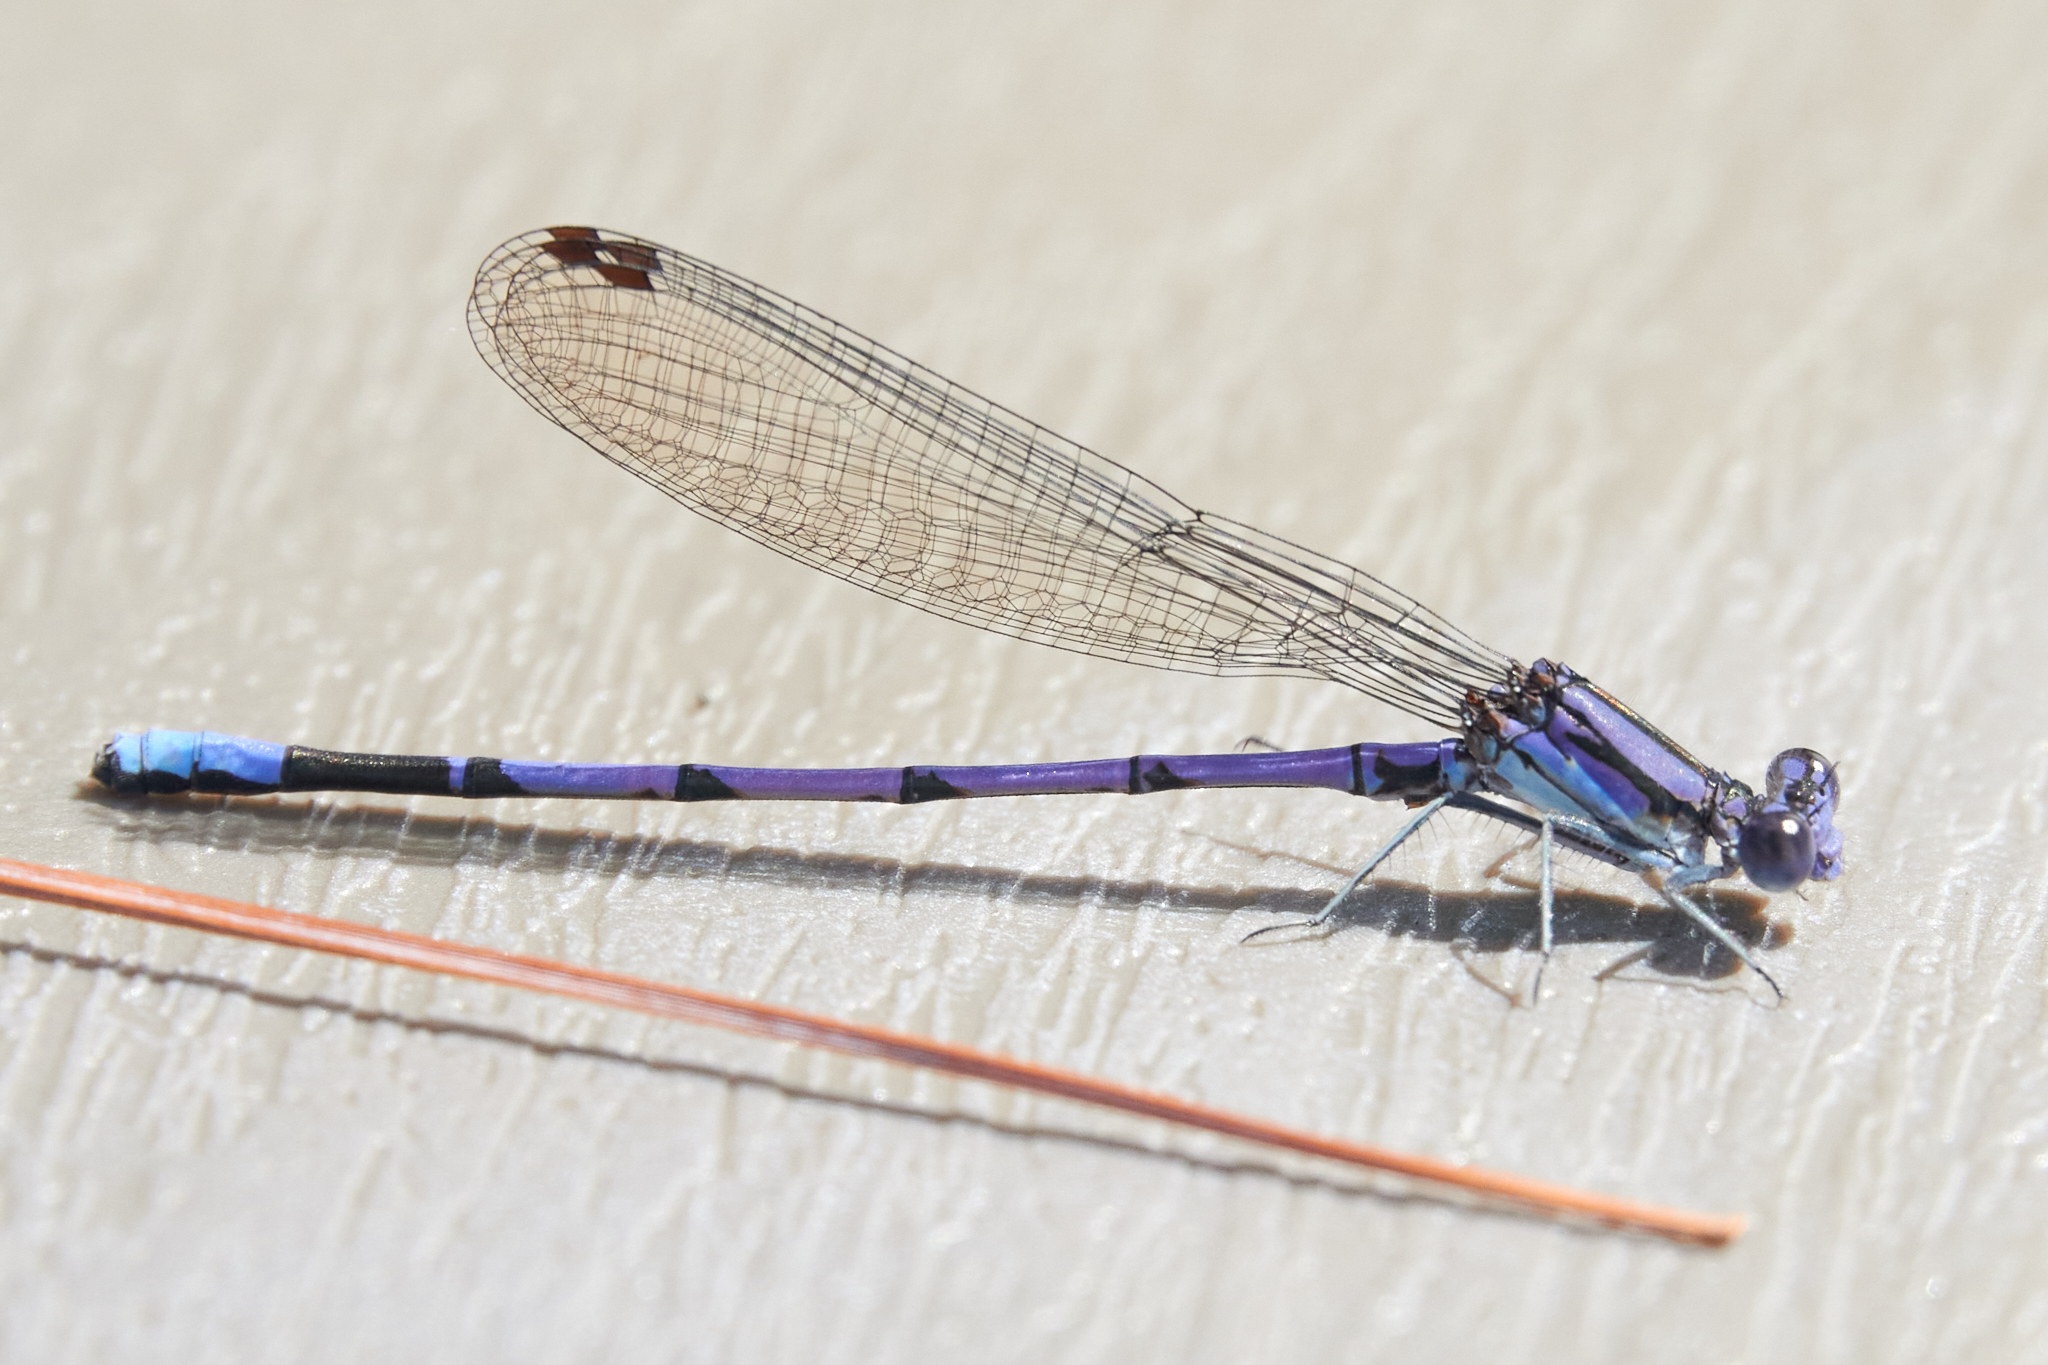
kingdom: Animalia
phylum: Arthropoda
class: Insecta
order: Odonata
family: Coenagrionidae
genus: Argia
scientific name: Argia fumipennis
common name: Variable dancer
